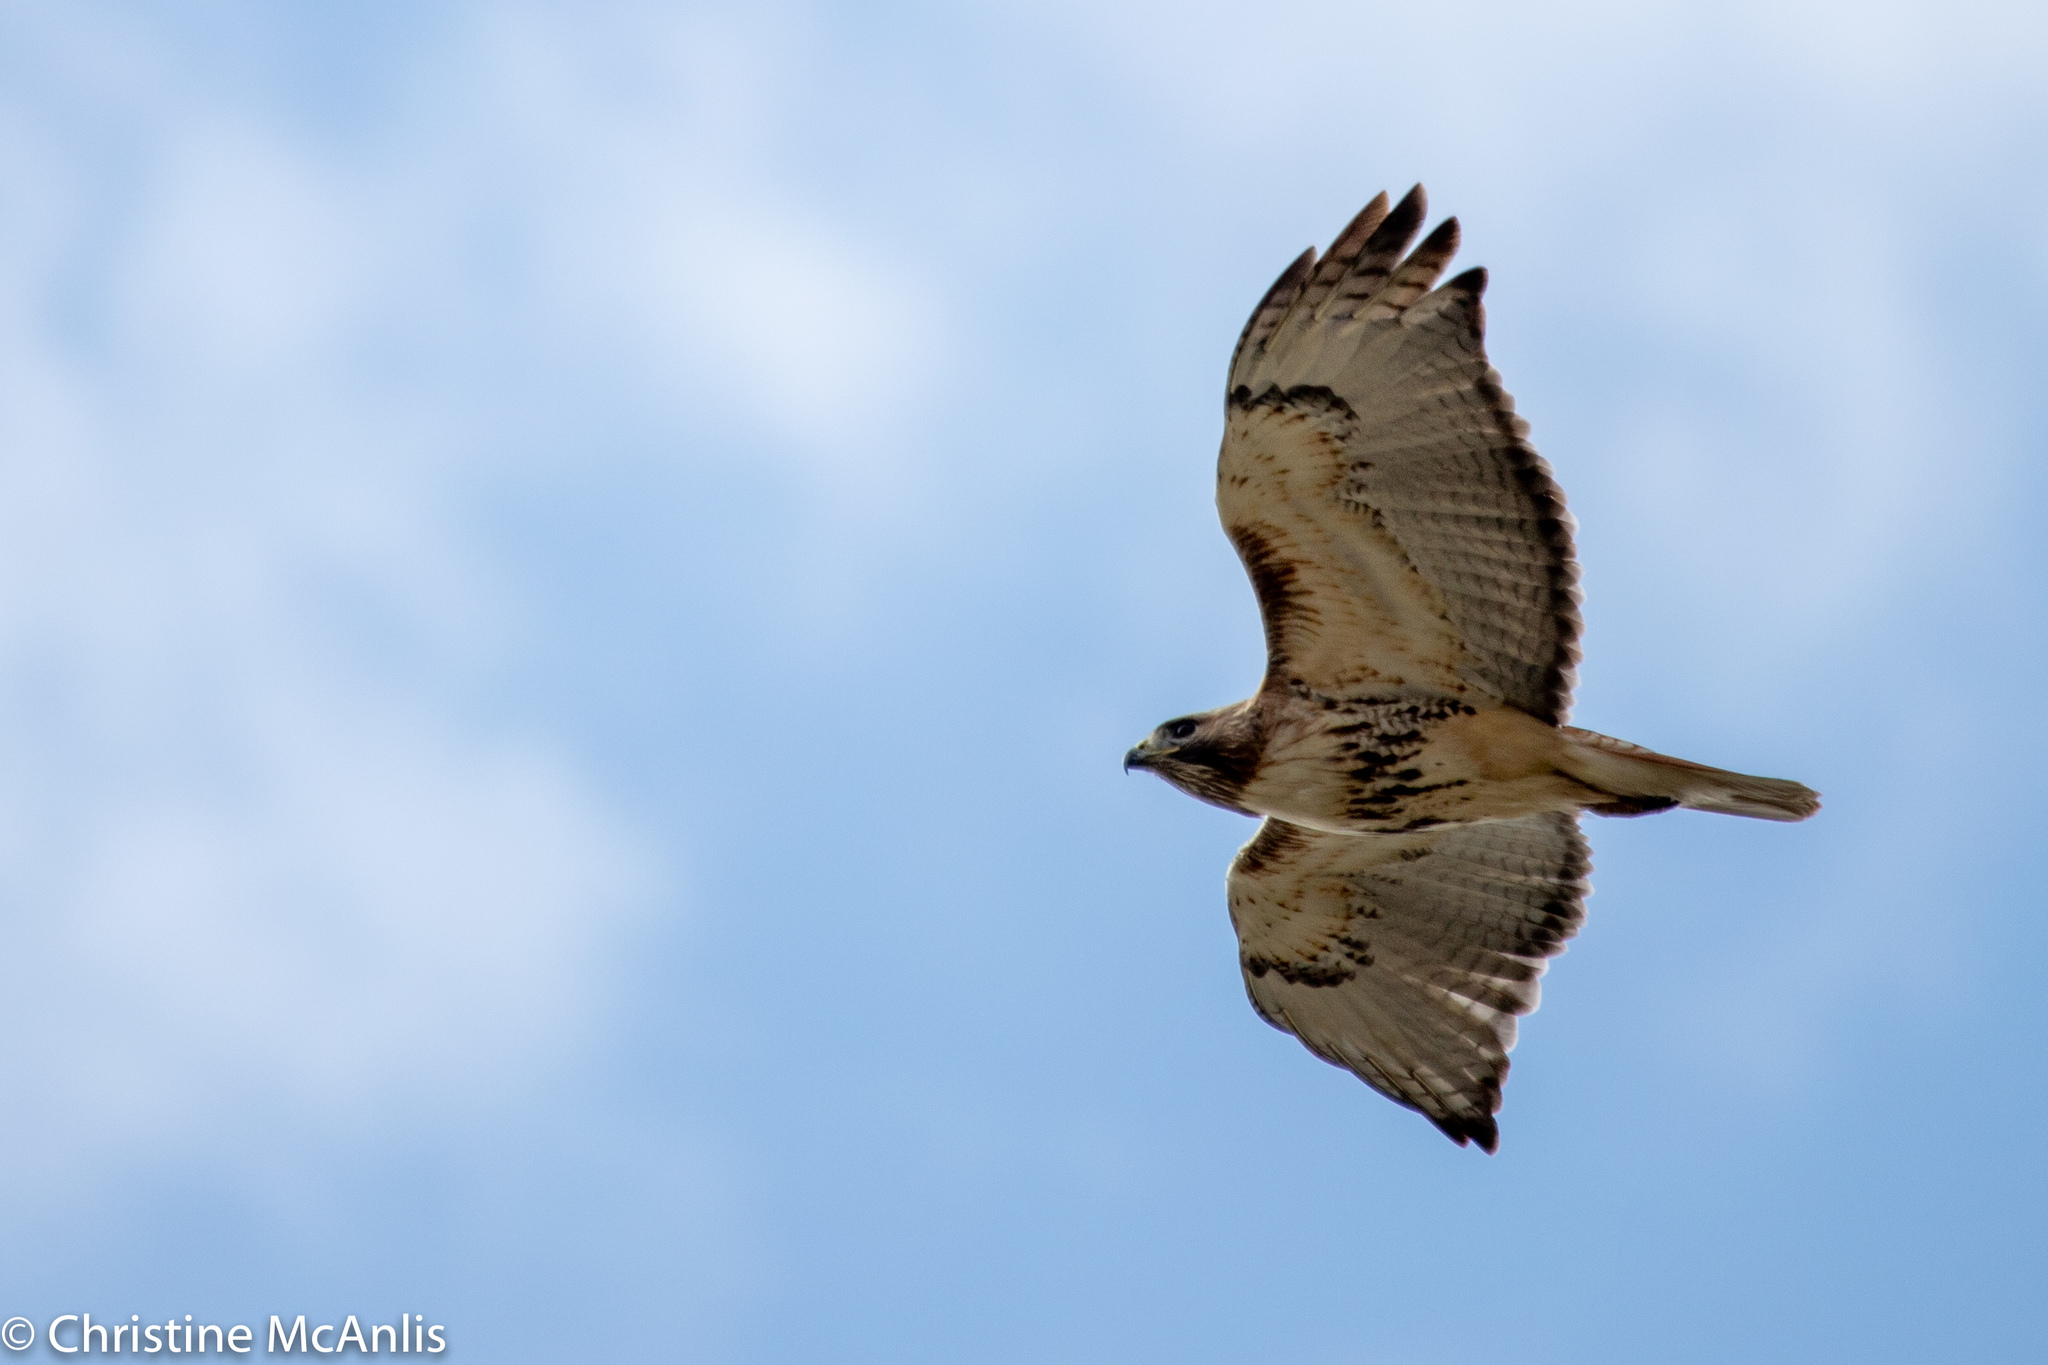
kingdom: Animalia
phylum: Chordata
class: Aves
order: Accipitriformes
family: Accipitridae
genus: Buteo
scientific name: Buteo jamaicensis
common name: Red-tailed hawk
